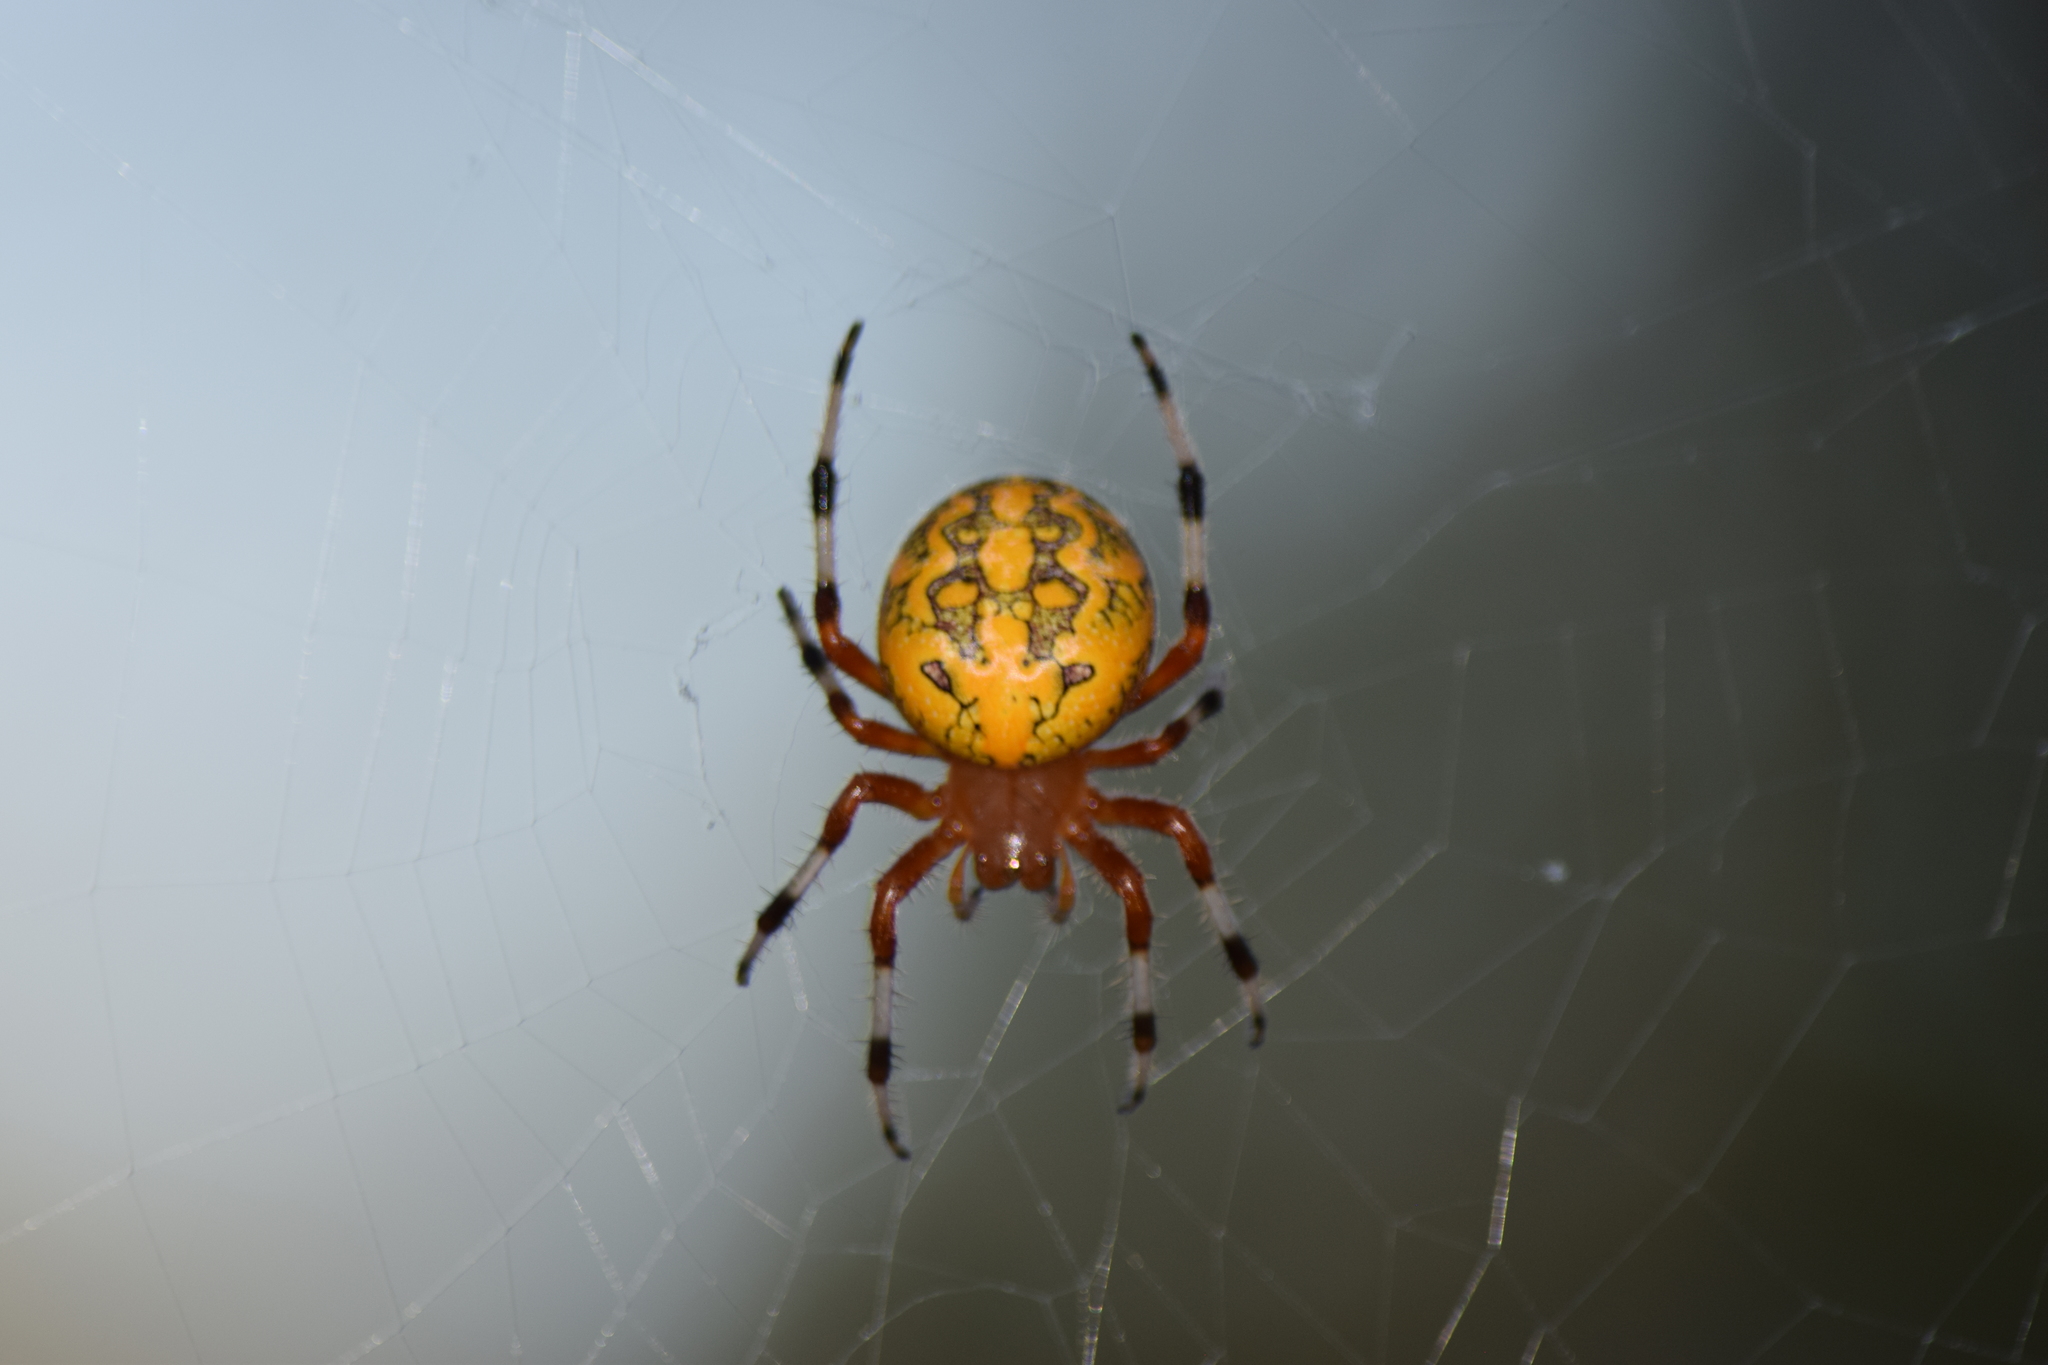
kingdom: Animalia
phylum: Arthropoda
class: Arachnida
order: Araneae
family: Araneidae
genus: Araneus
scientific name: Araneus marmoreus
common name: Marbled orbweaver
